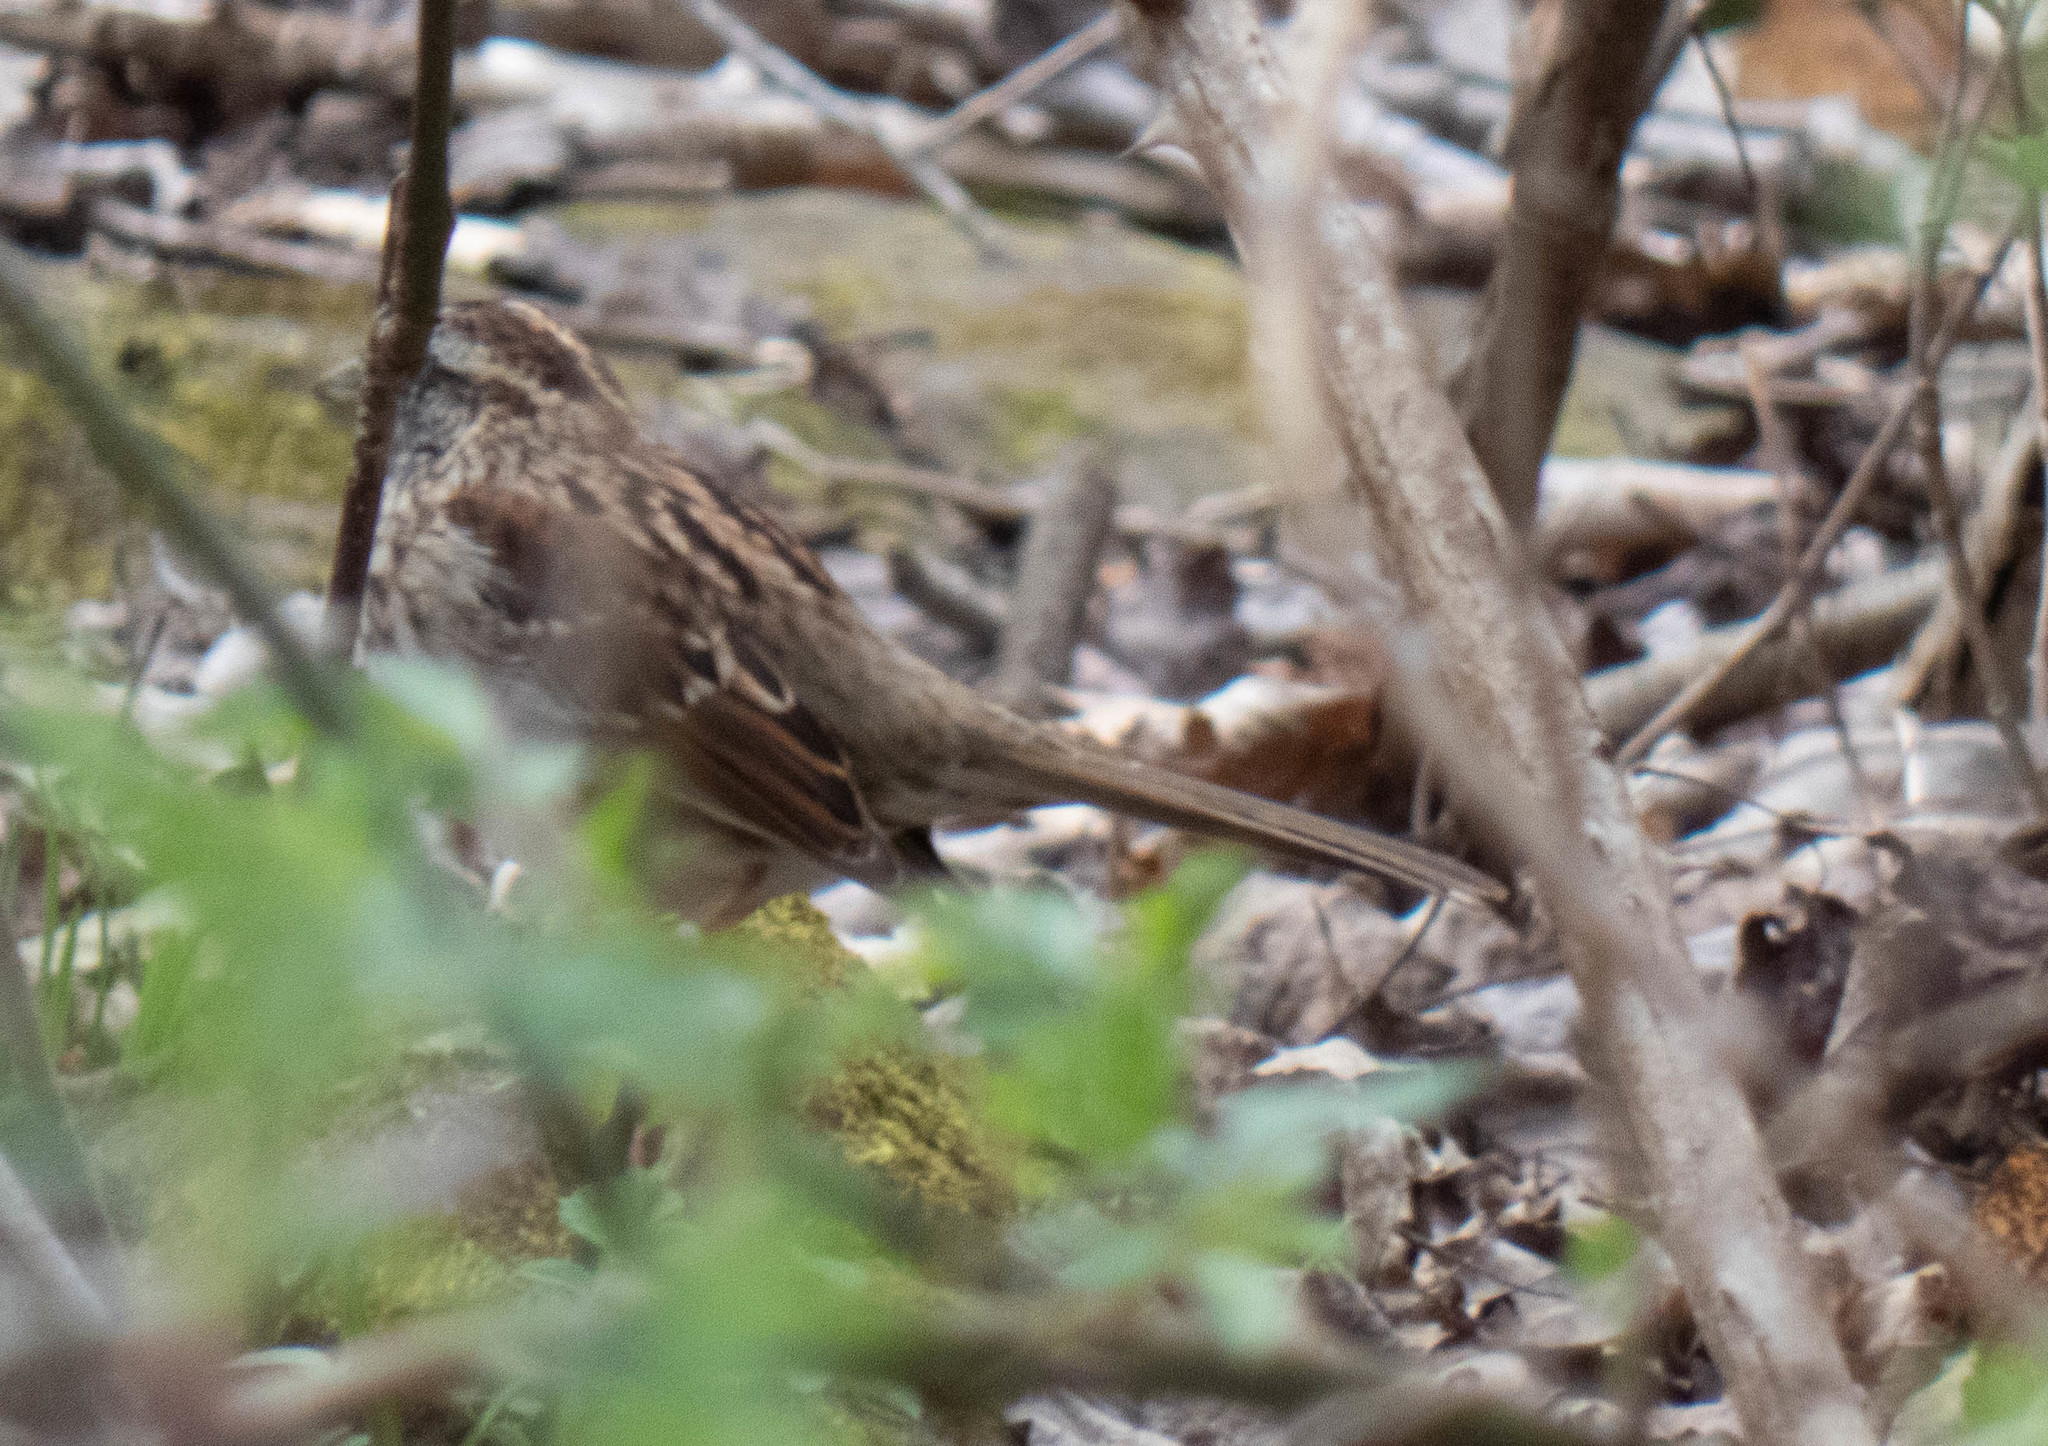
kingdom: Animalia
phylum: Chordata
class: Aves
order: Passeriformes
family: Passerellidae
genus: Zonotrichia
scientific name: Zonotrichia albicollis
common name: White-throated sparrow
